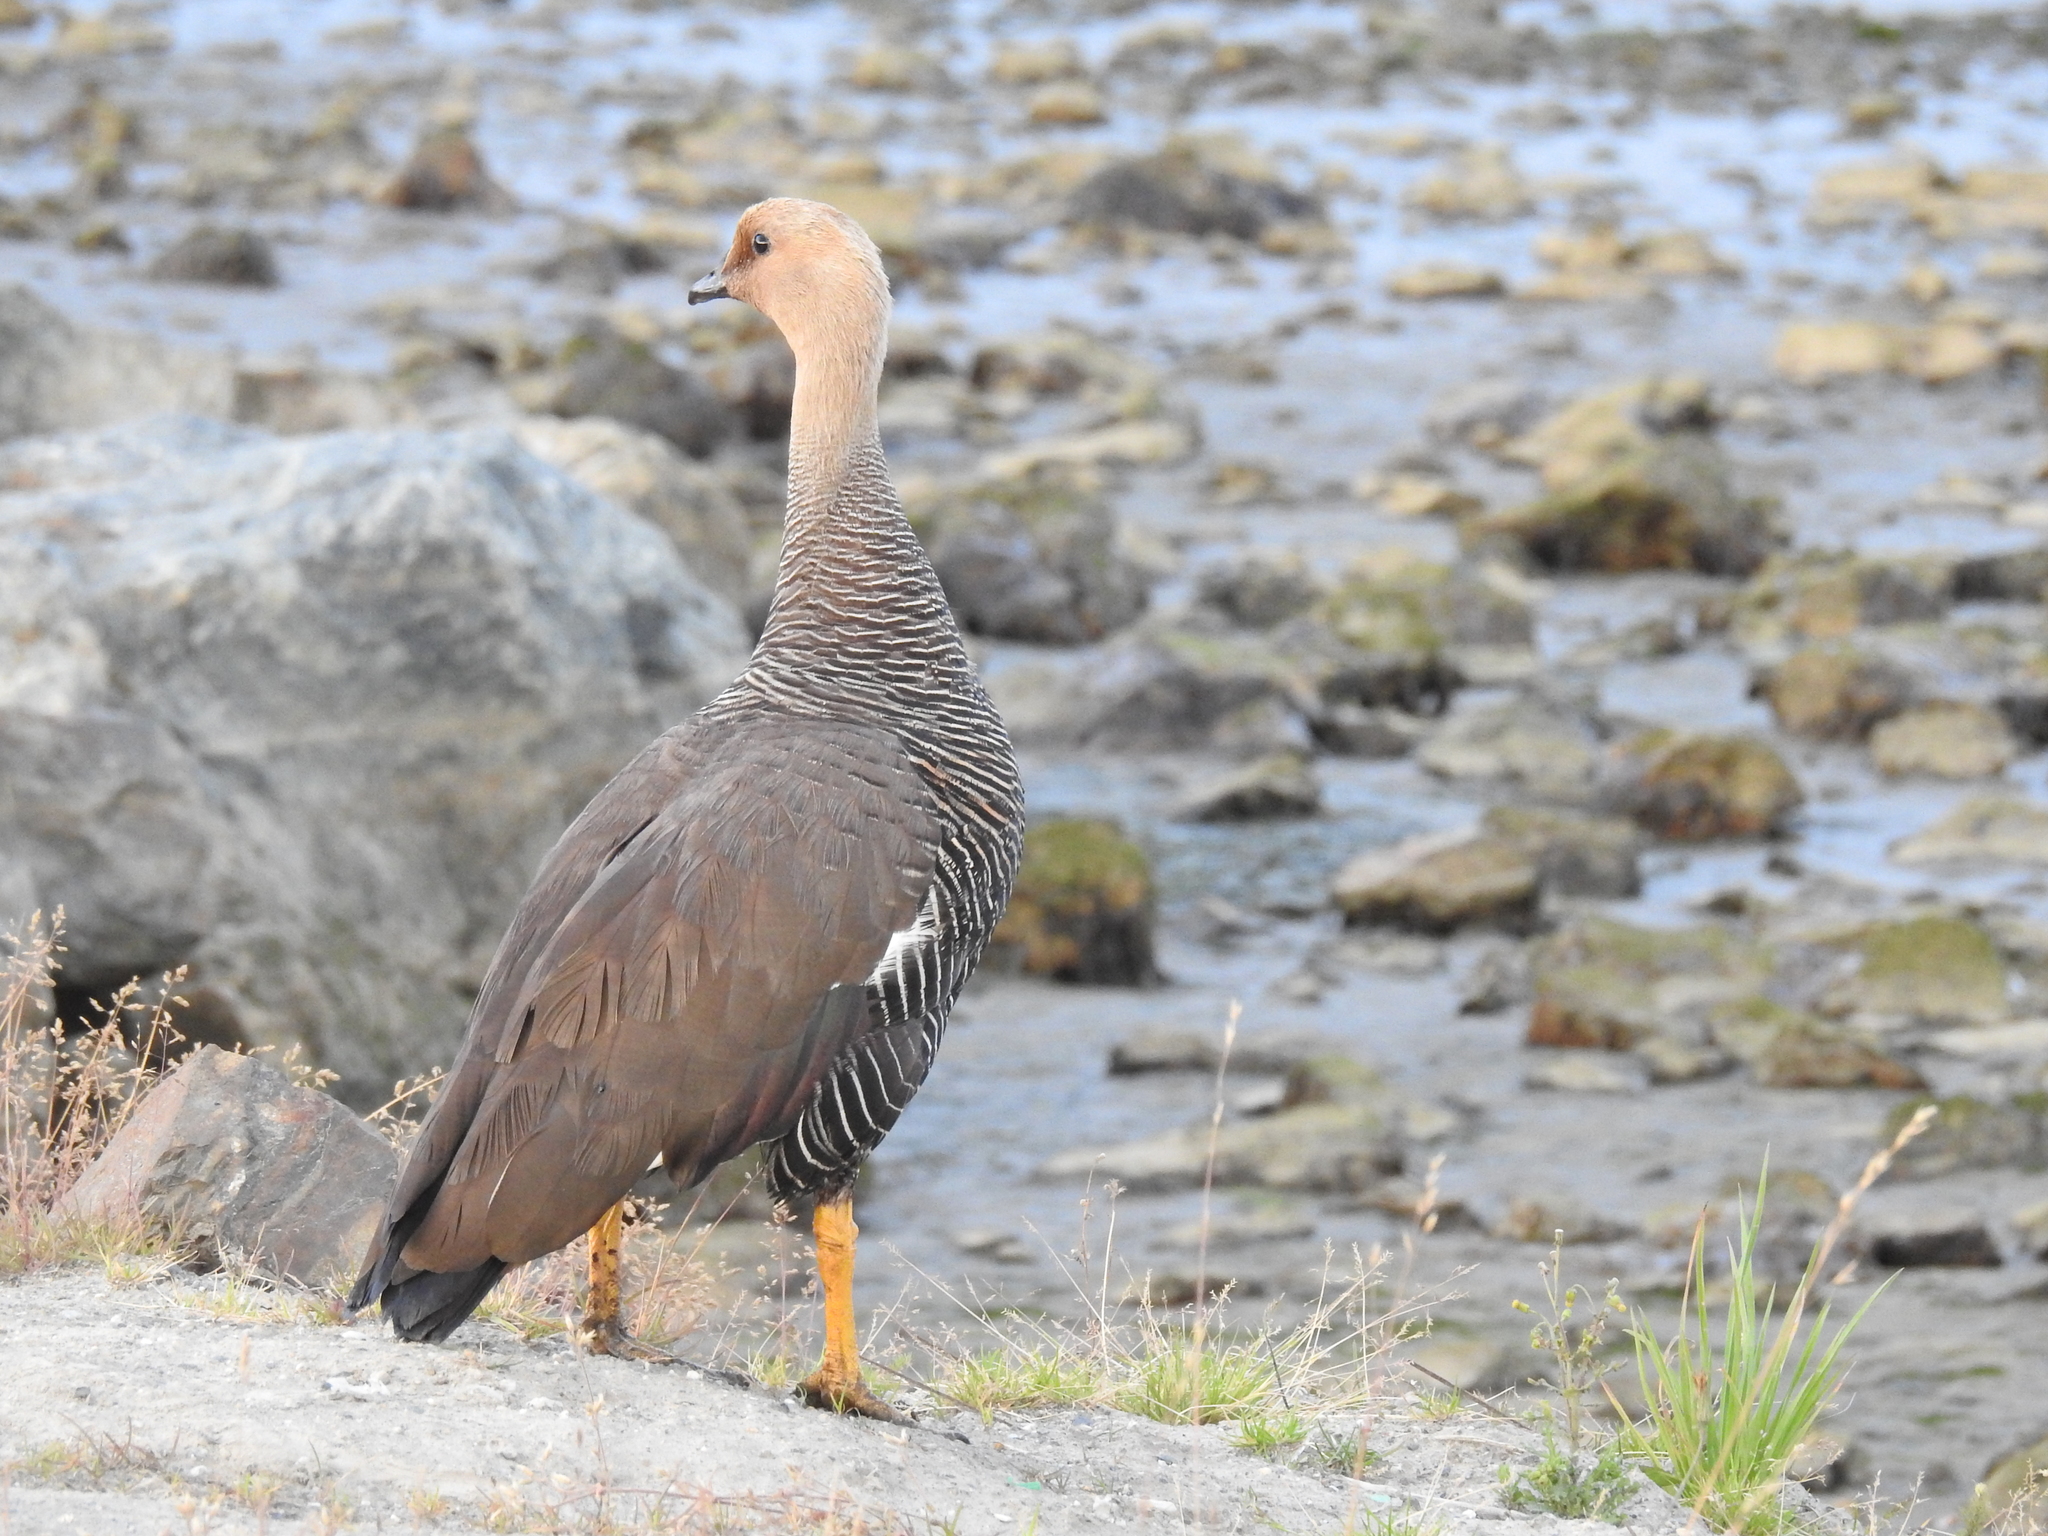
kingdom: Animalia
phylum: Chordata
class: Aves
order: Anseriformes
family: Anatidae
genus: Chloephaga
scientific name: Chloephaga picta
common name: Upland goose
